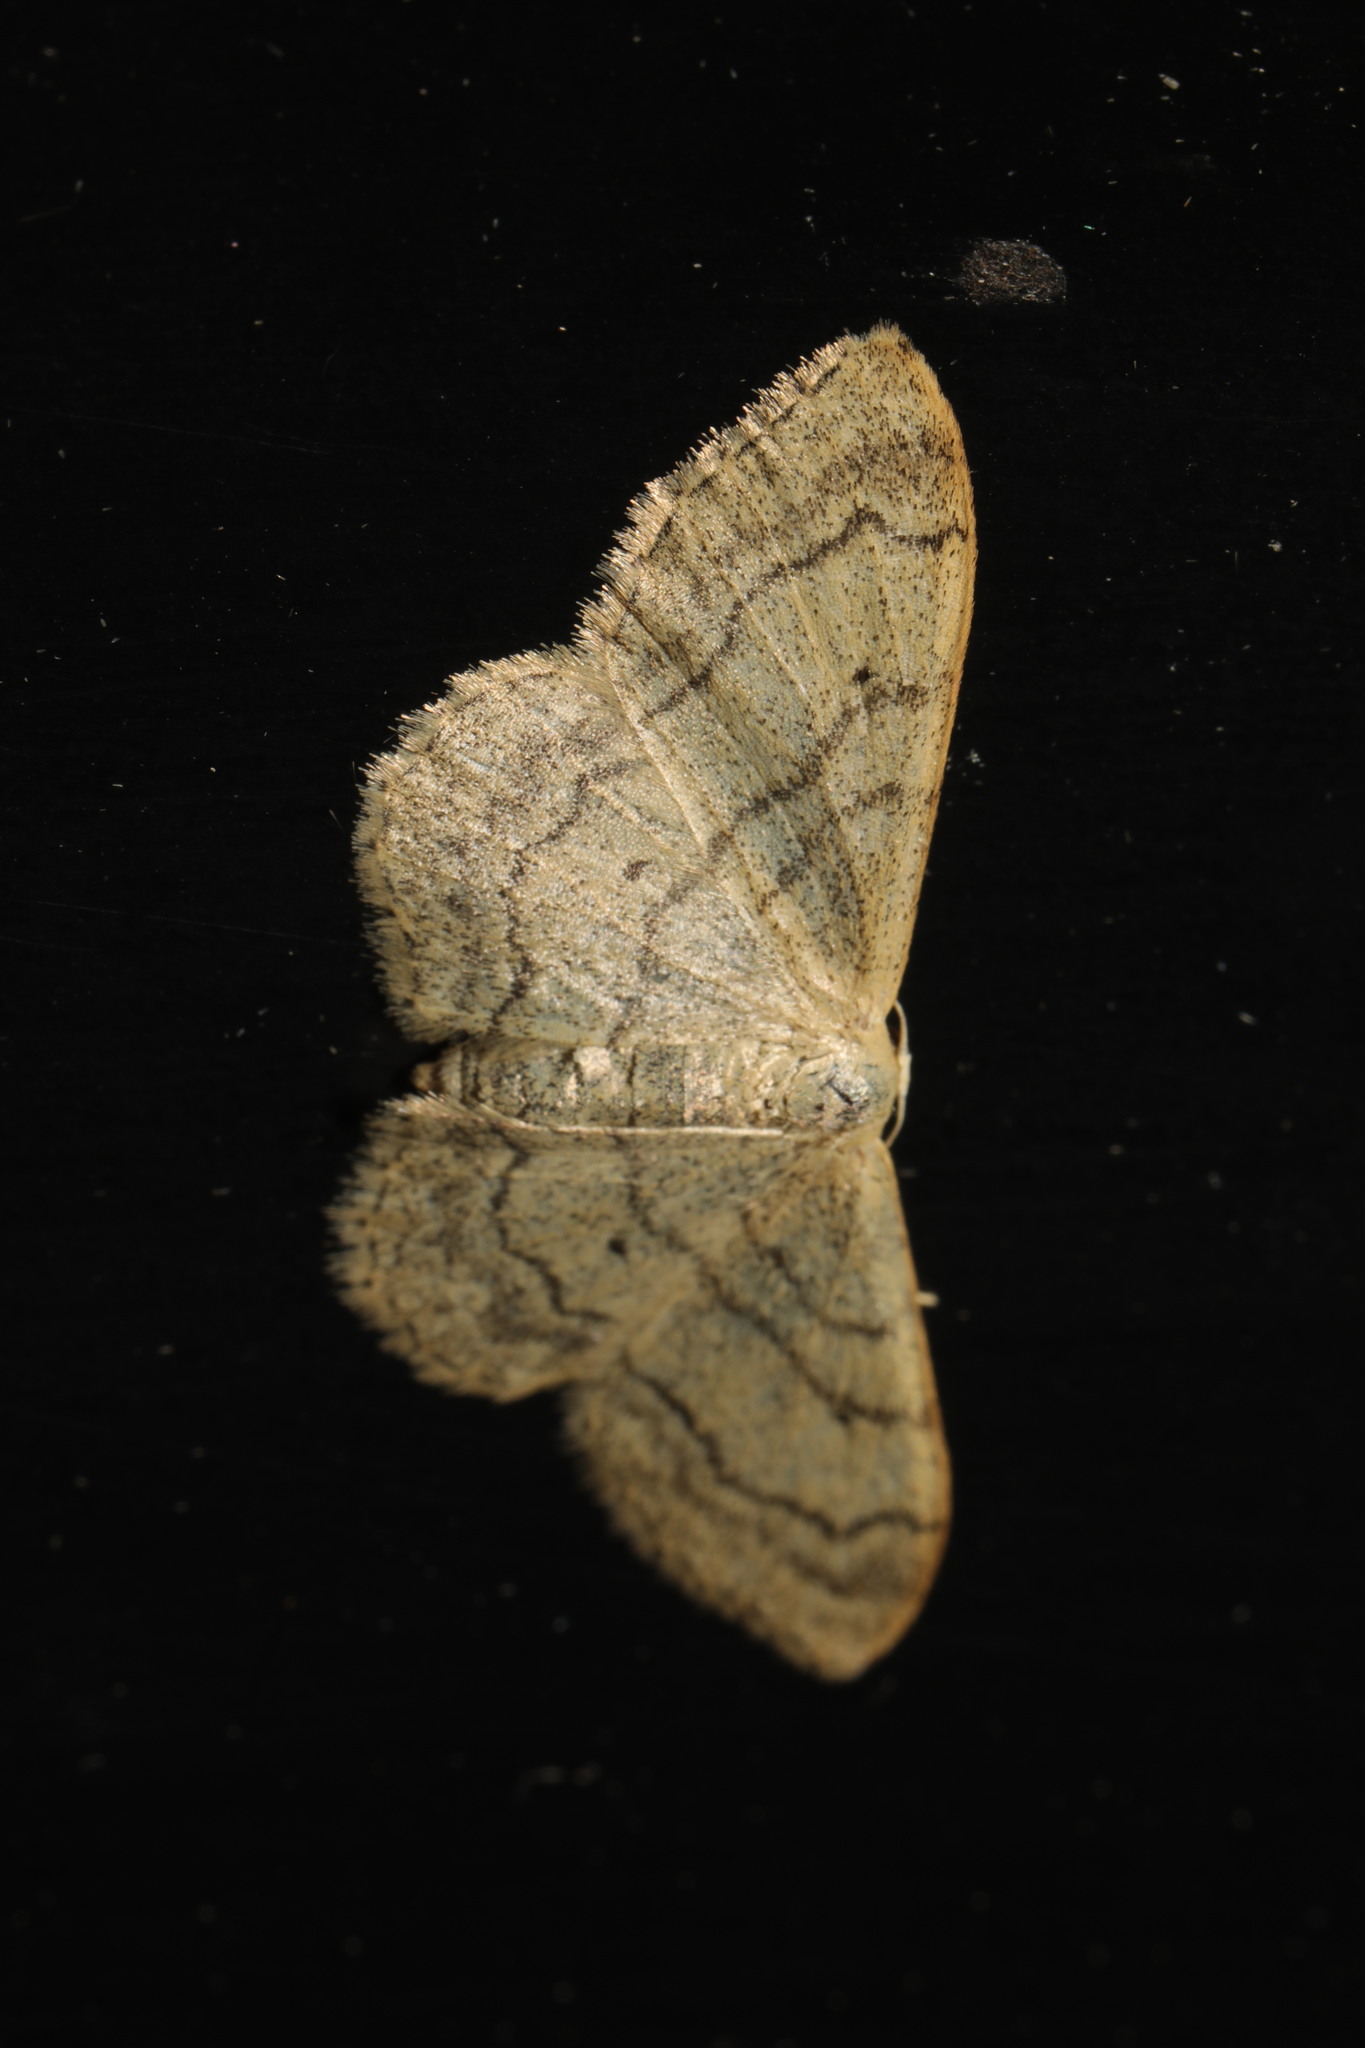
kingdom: Animalia
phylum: Arthropoda
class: Insecta
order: Lepidoptera
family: Geometridae
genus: Idaea
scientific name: Idaea aversata
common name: Riband wave
